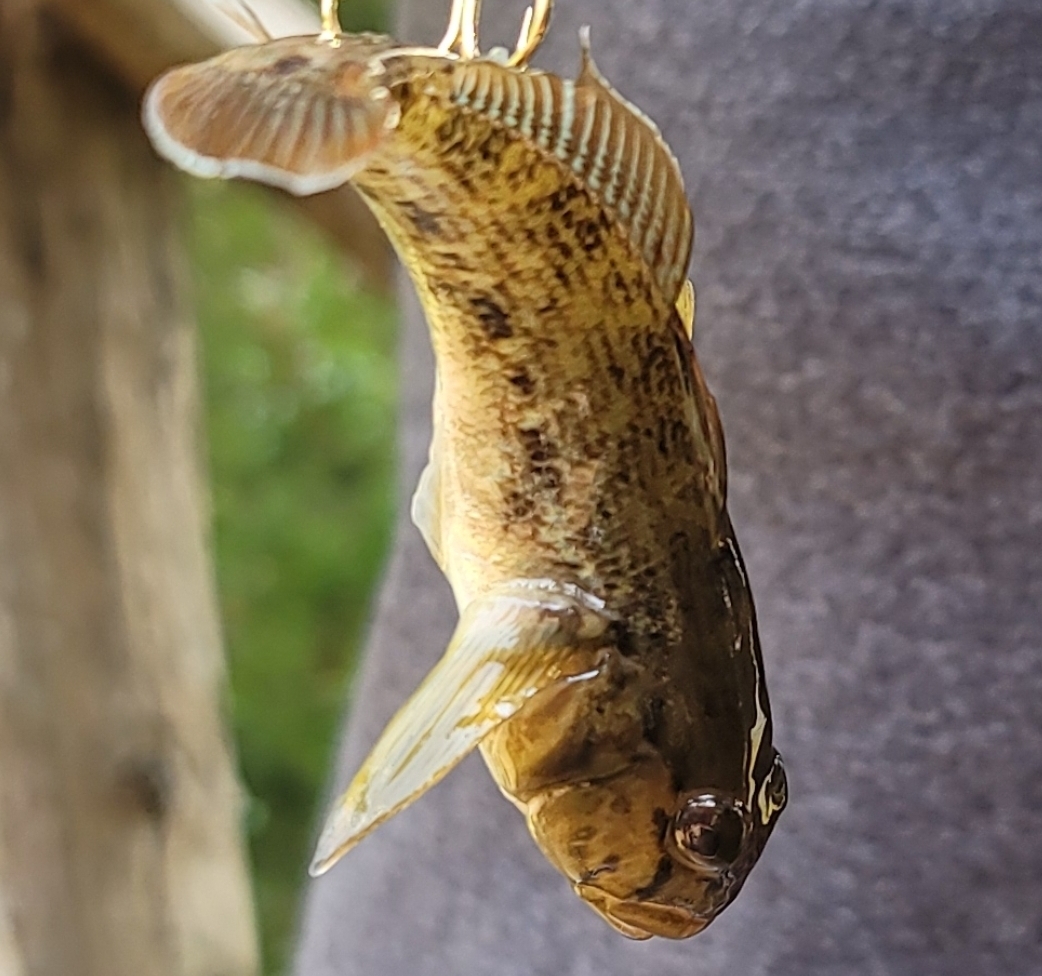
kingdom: Animalia
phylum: Chordata
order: Perciformes
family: Gobiidae
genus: Neogobius
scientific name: Neogobius melanostomus
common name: Round goby
